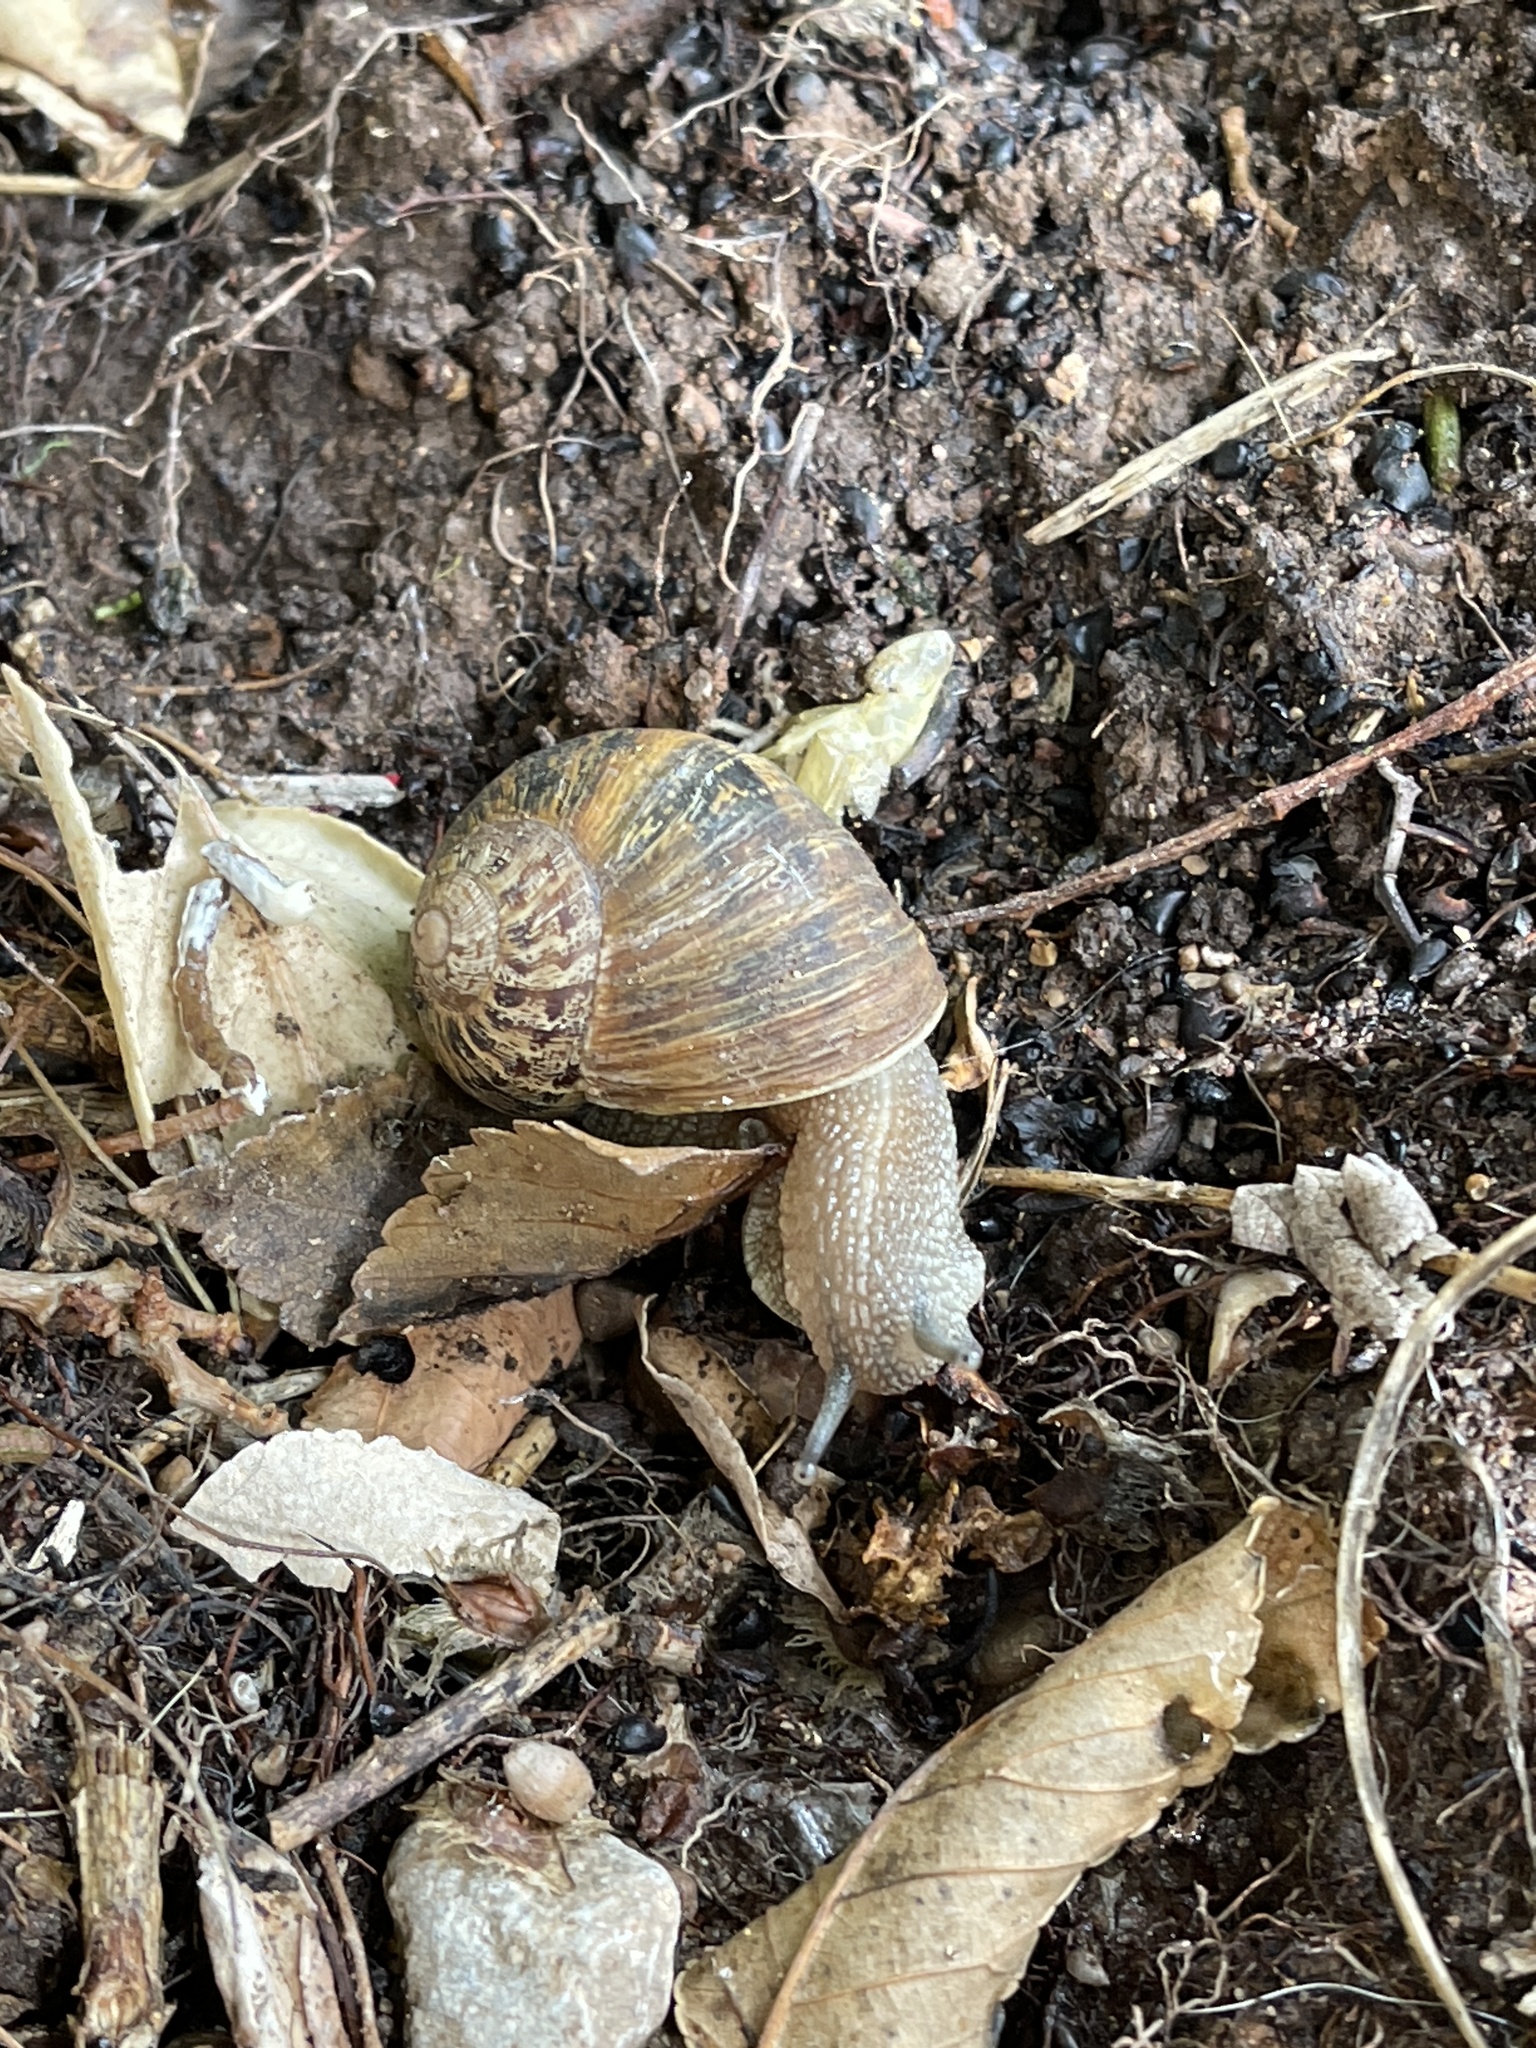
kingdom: Animalia
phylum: Mollusca
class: Gastropoda
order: Stylommatophora
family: Helicidae
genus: Cornu
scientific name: Cornu aspersum
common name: Brown garden snail
